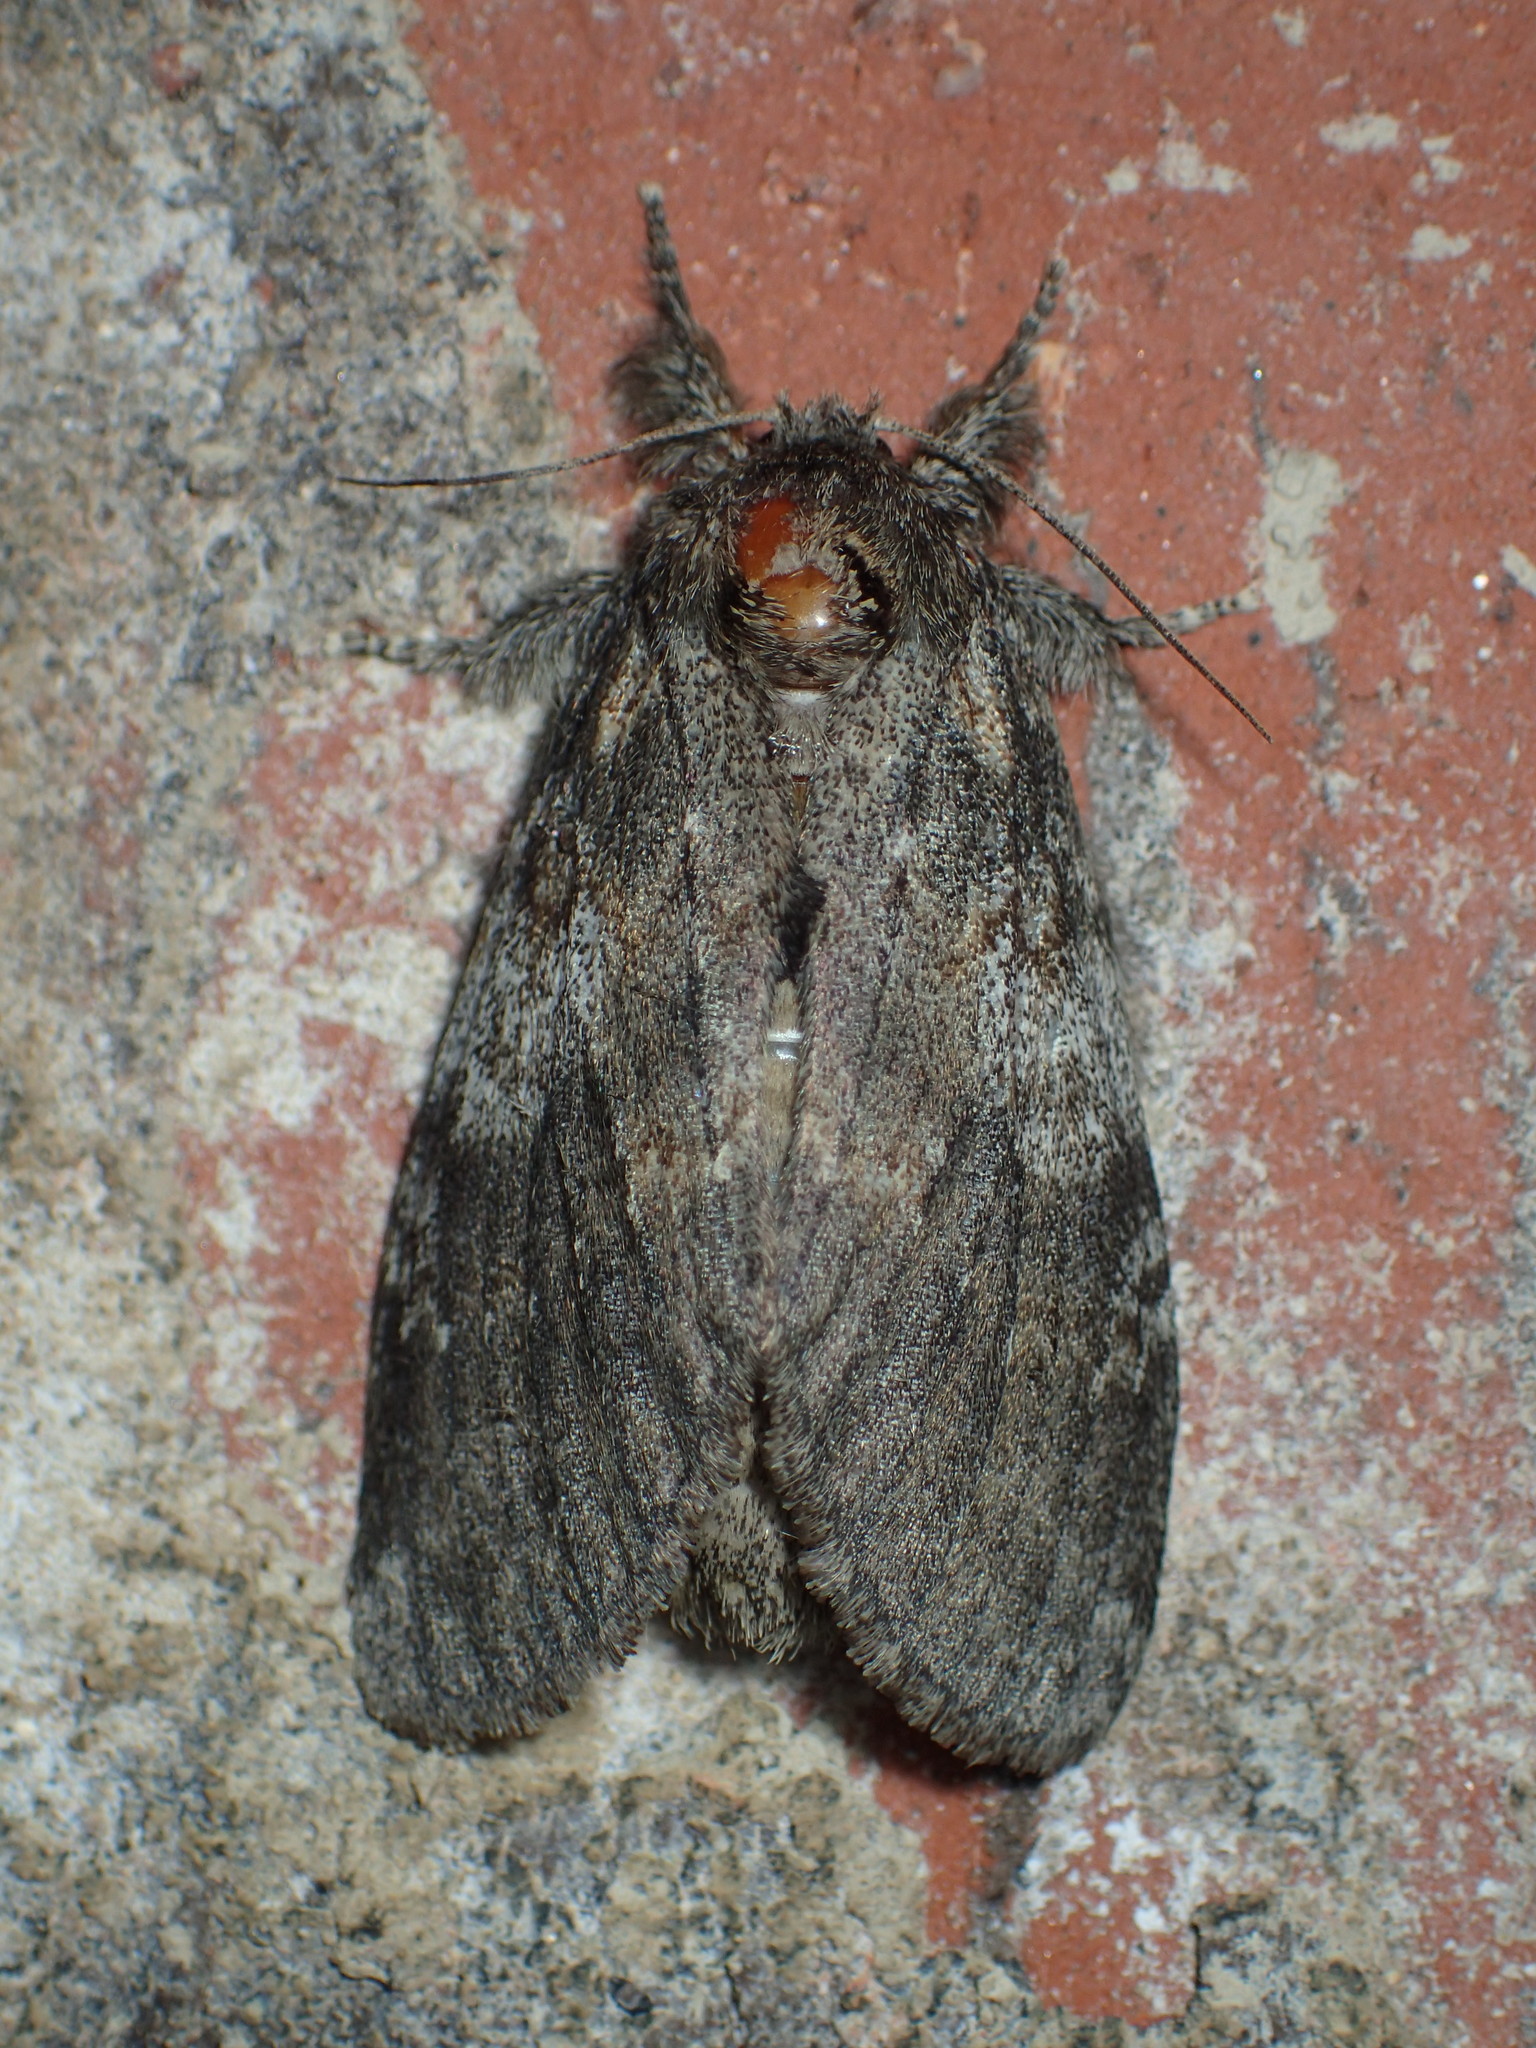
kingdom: Animalia
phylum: Arthropoda
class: Insecta
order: Lepidoptera
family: Notodontidae
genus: Peridea
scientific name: Peridea angulosa
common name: Angulose prominent
